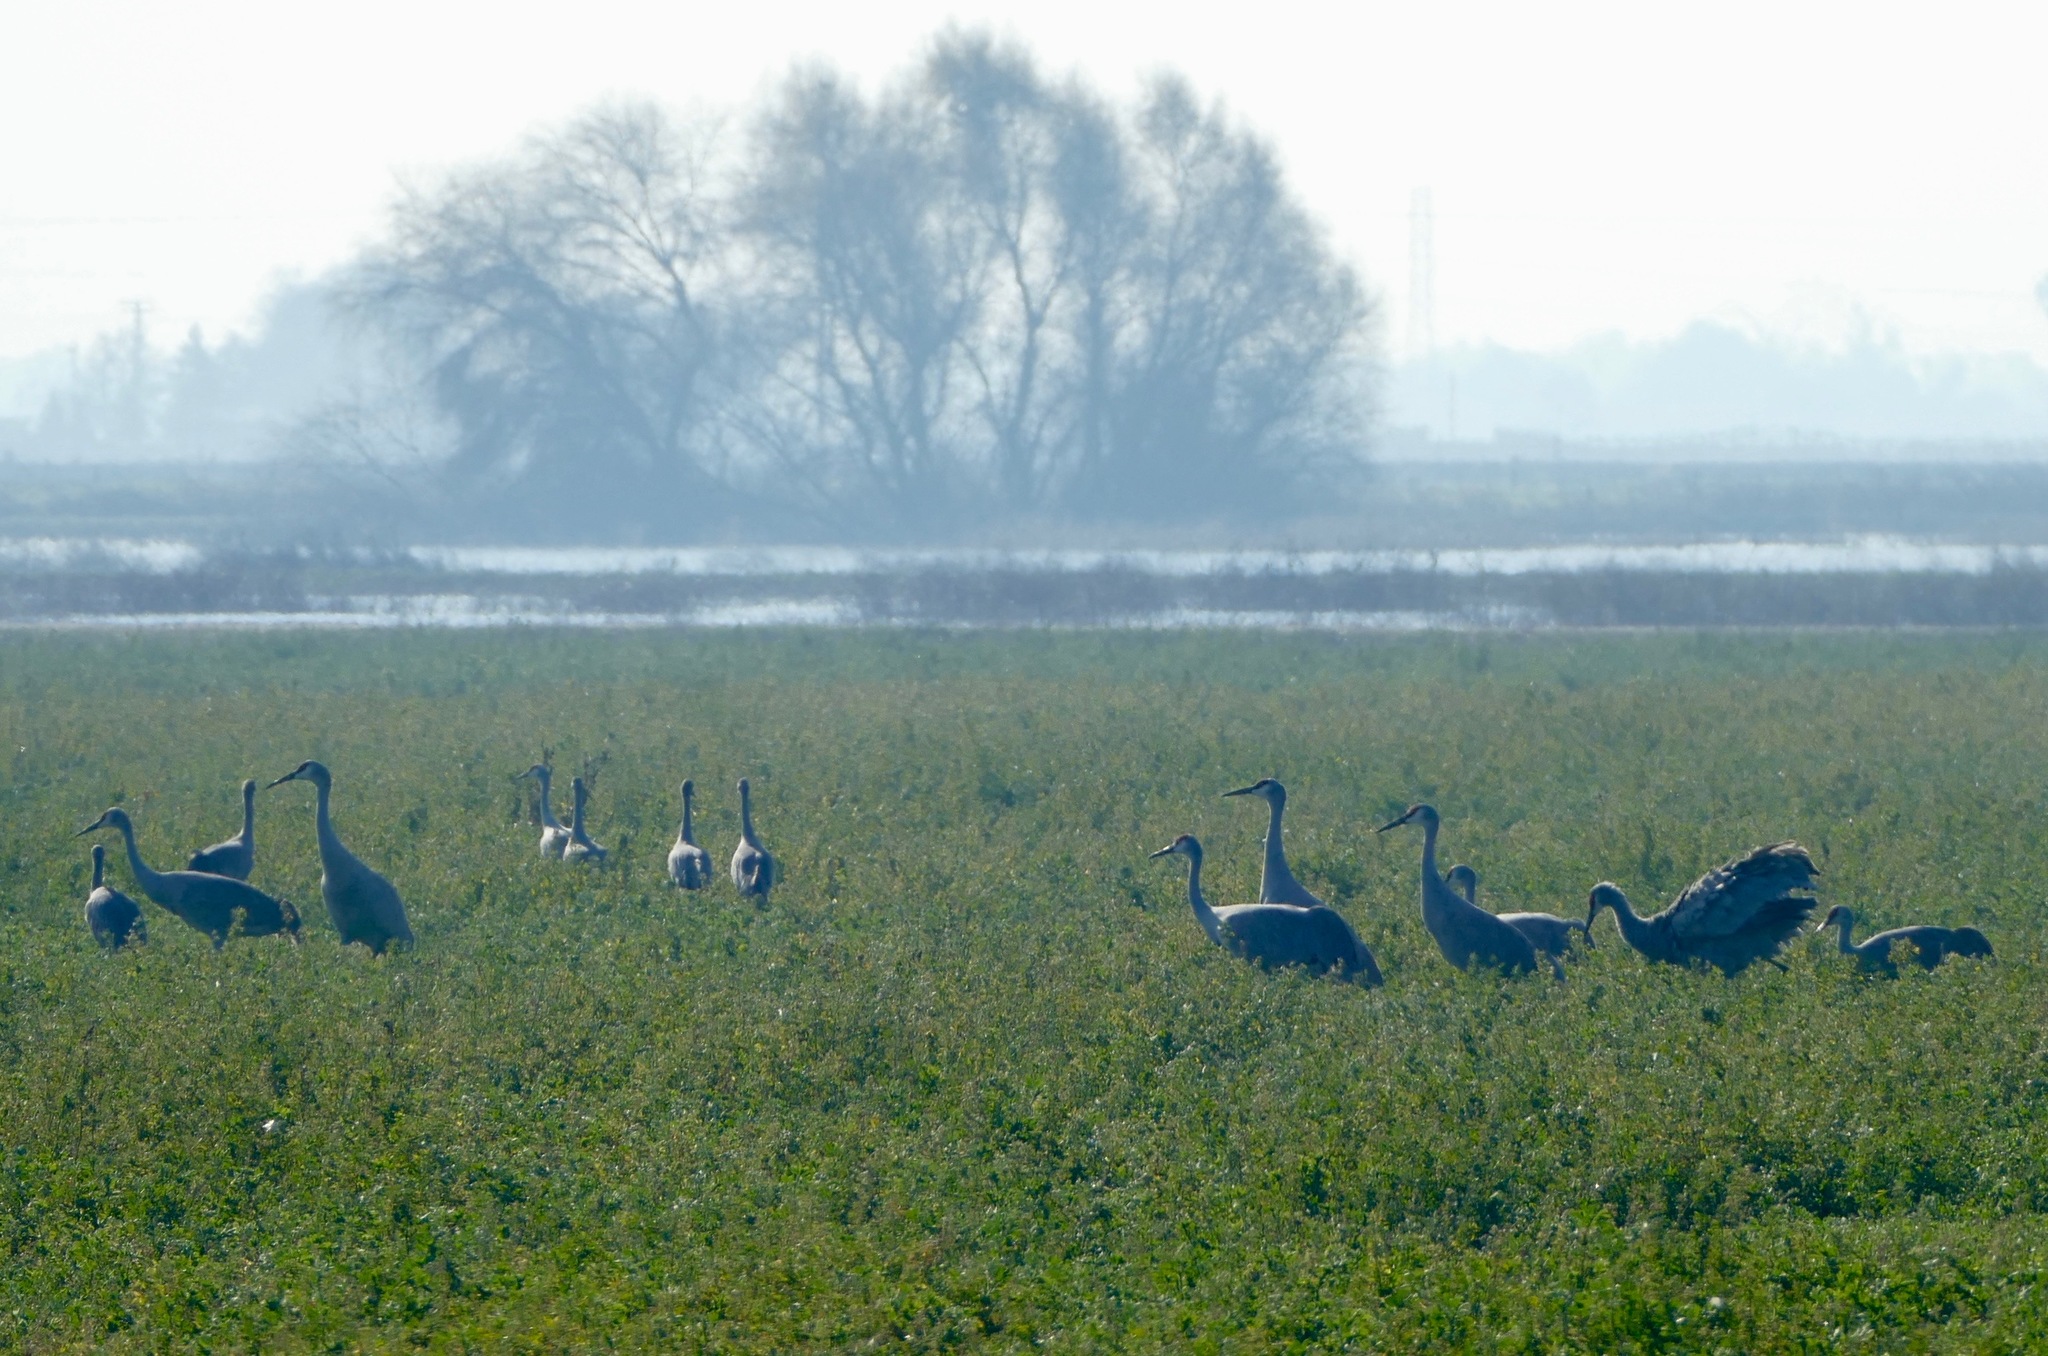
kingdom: Animalia
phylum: Chordata
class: Aves
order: Gruiformes
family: Gruidae
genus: Grus
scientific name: Grus canadensis
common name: Sandhill crane
